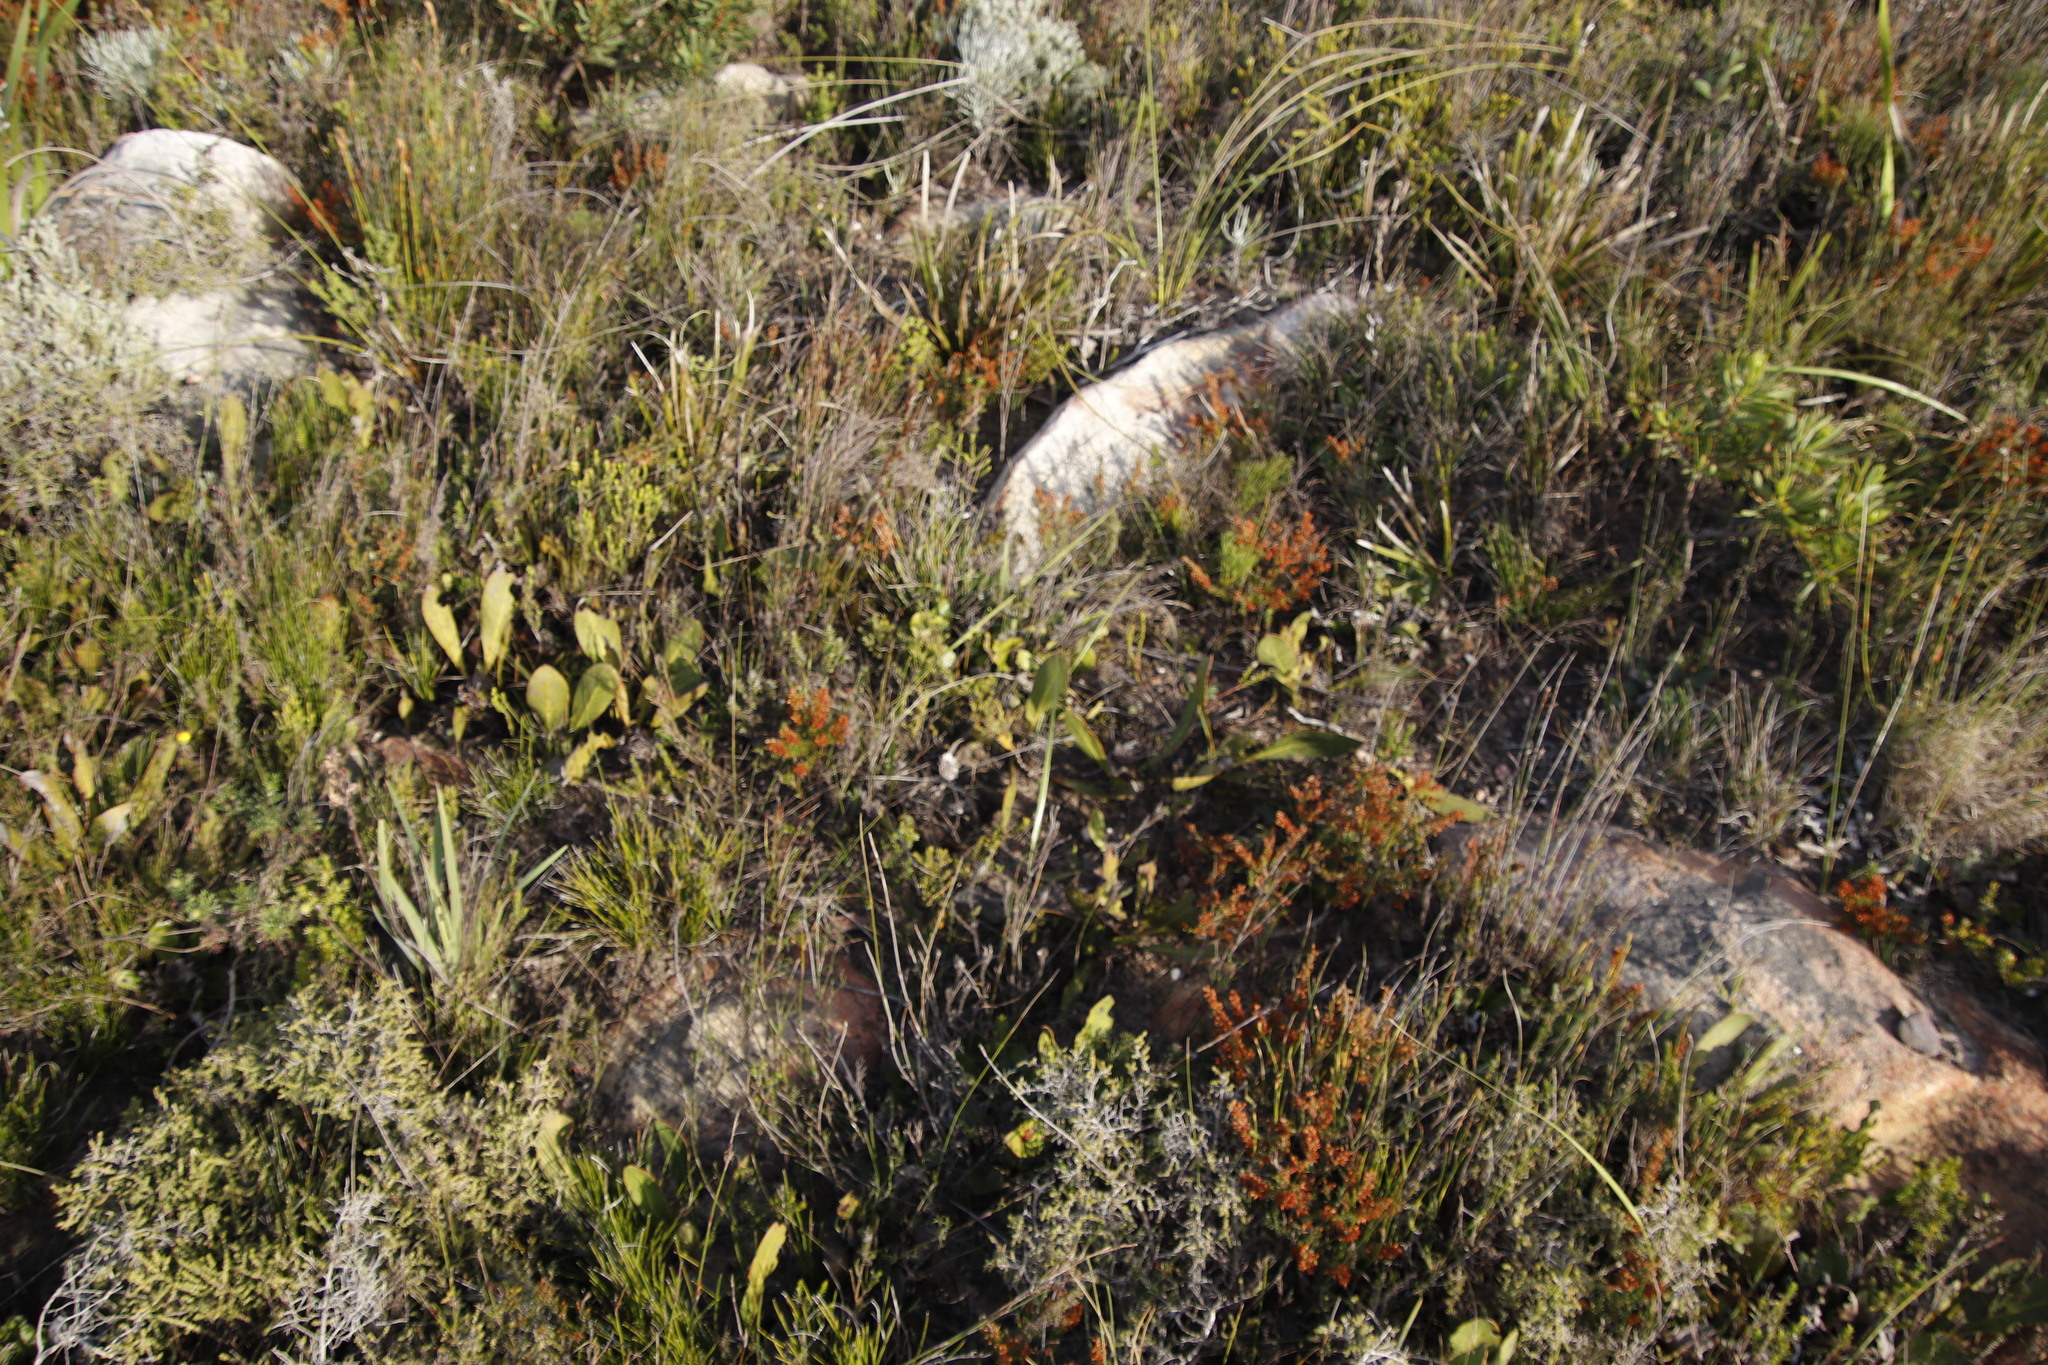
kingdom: Plantae
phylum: Tracheophyta
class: Magnoliopsida
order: Proteales
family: Proteaceae
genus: Protea
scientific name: Protea acaulos
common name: Common ground sugarbush
